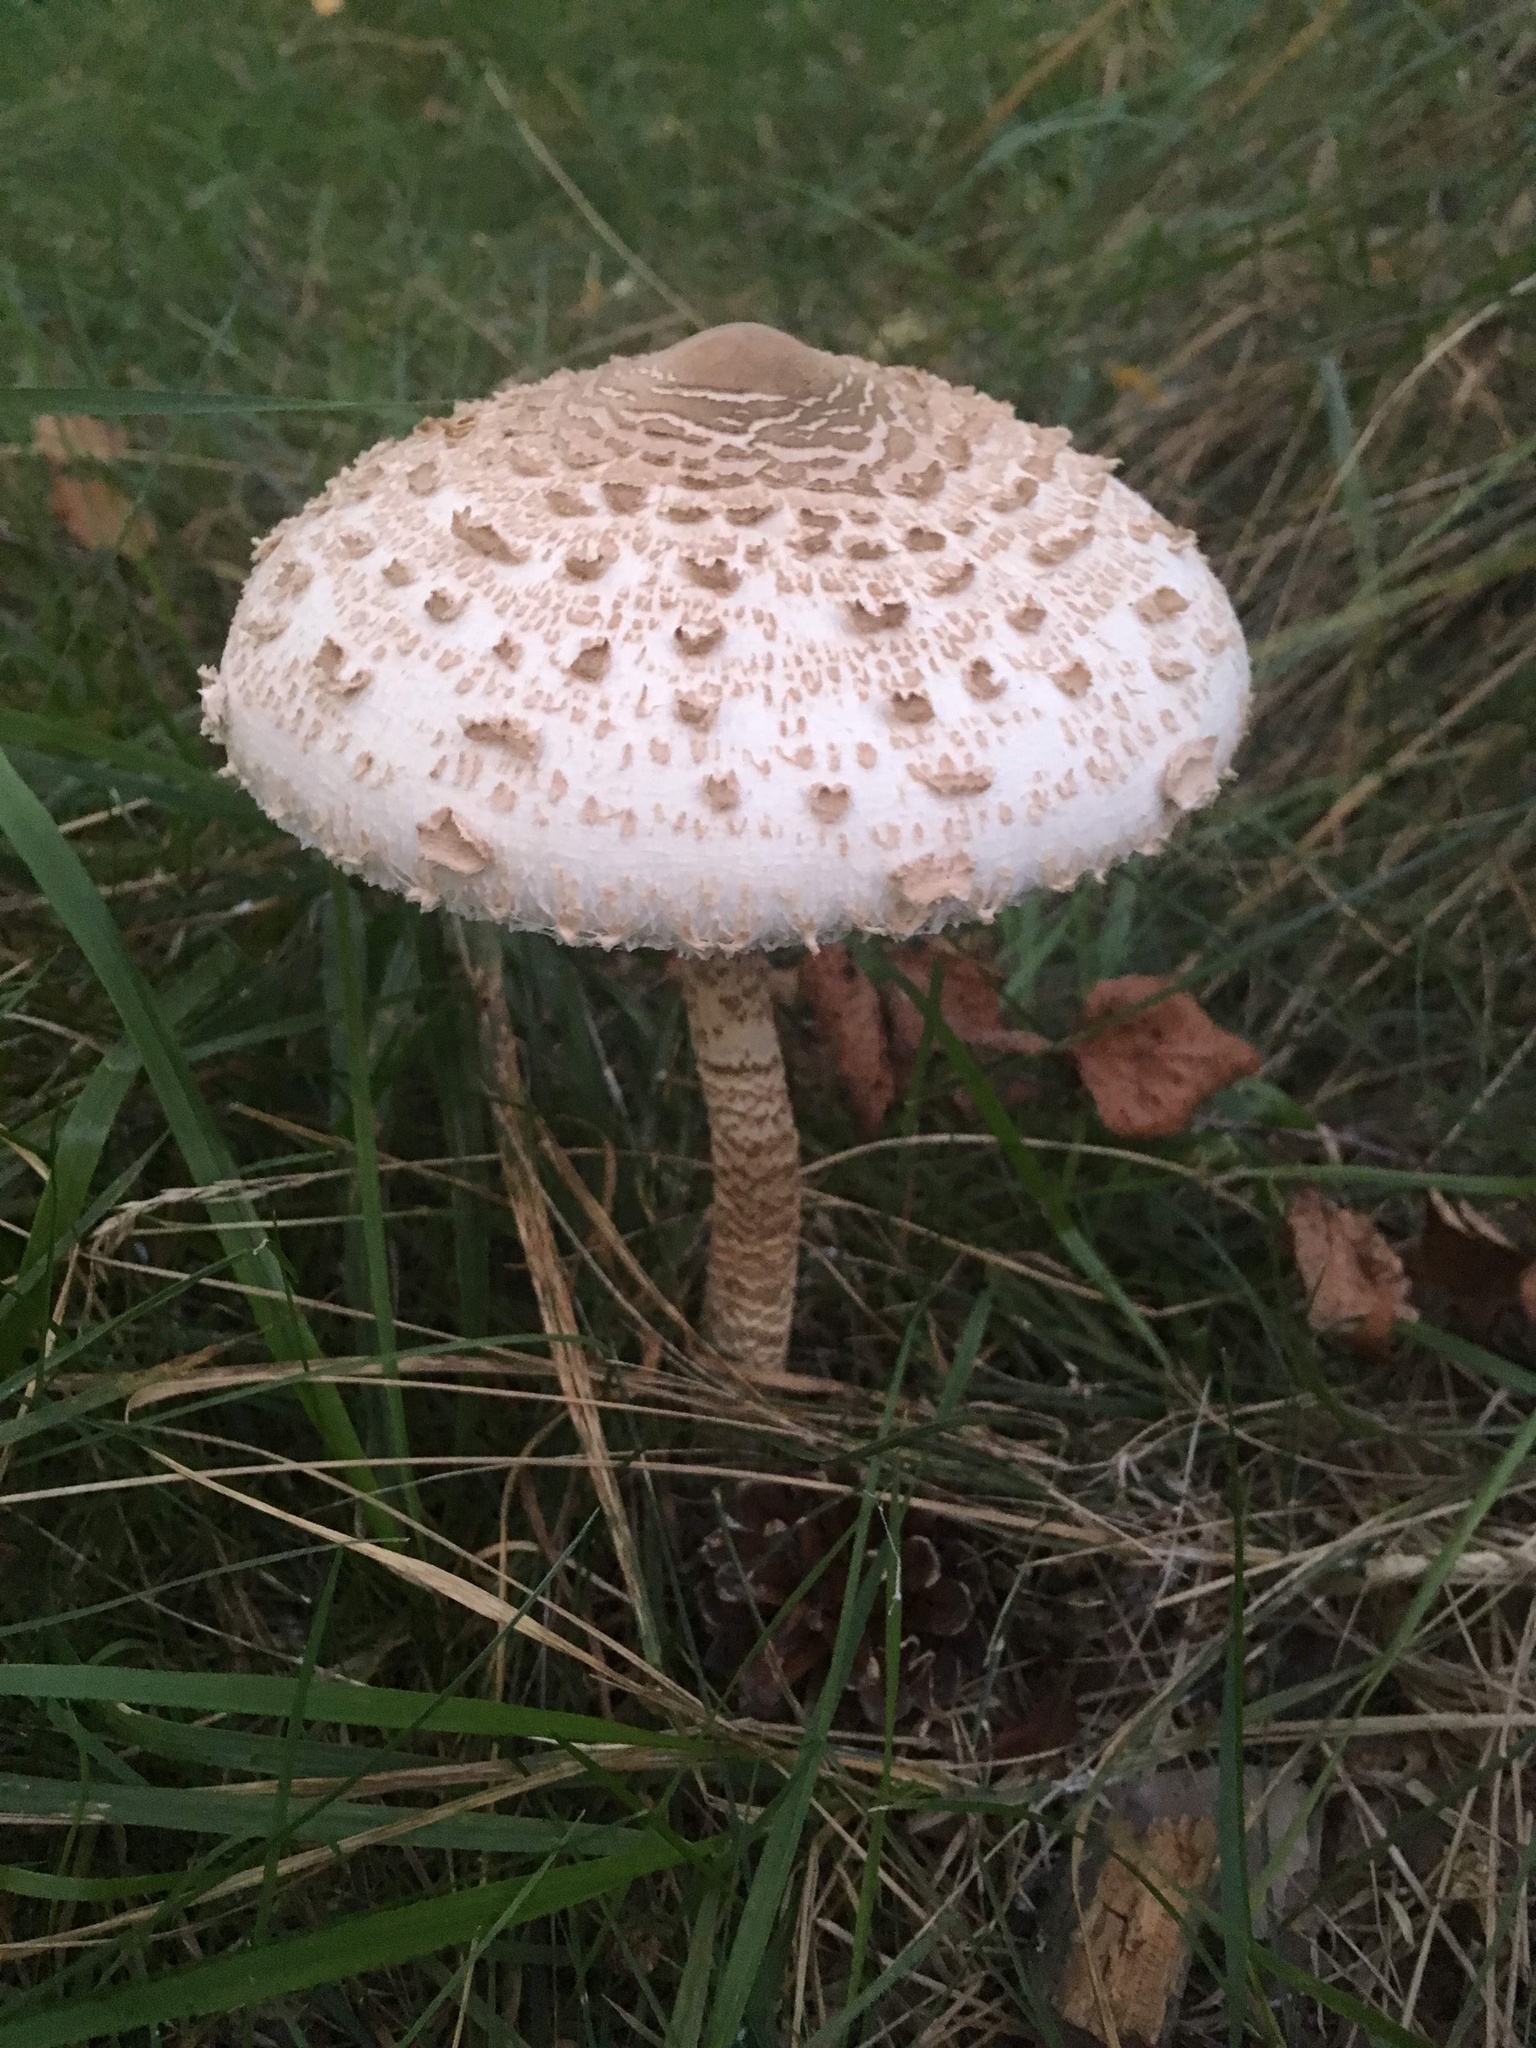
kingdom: Fungi
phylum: Basidiomycota
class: Agaricomycetes
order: Agaricales
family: Agaricaceae
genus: Macrolepiota
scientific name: Macrolepiota procera
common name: Parasol
